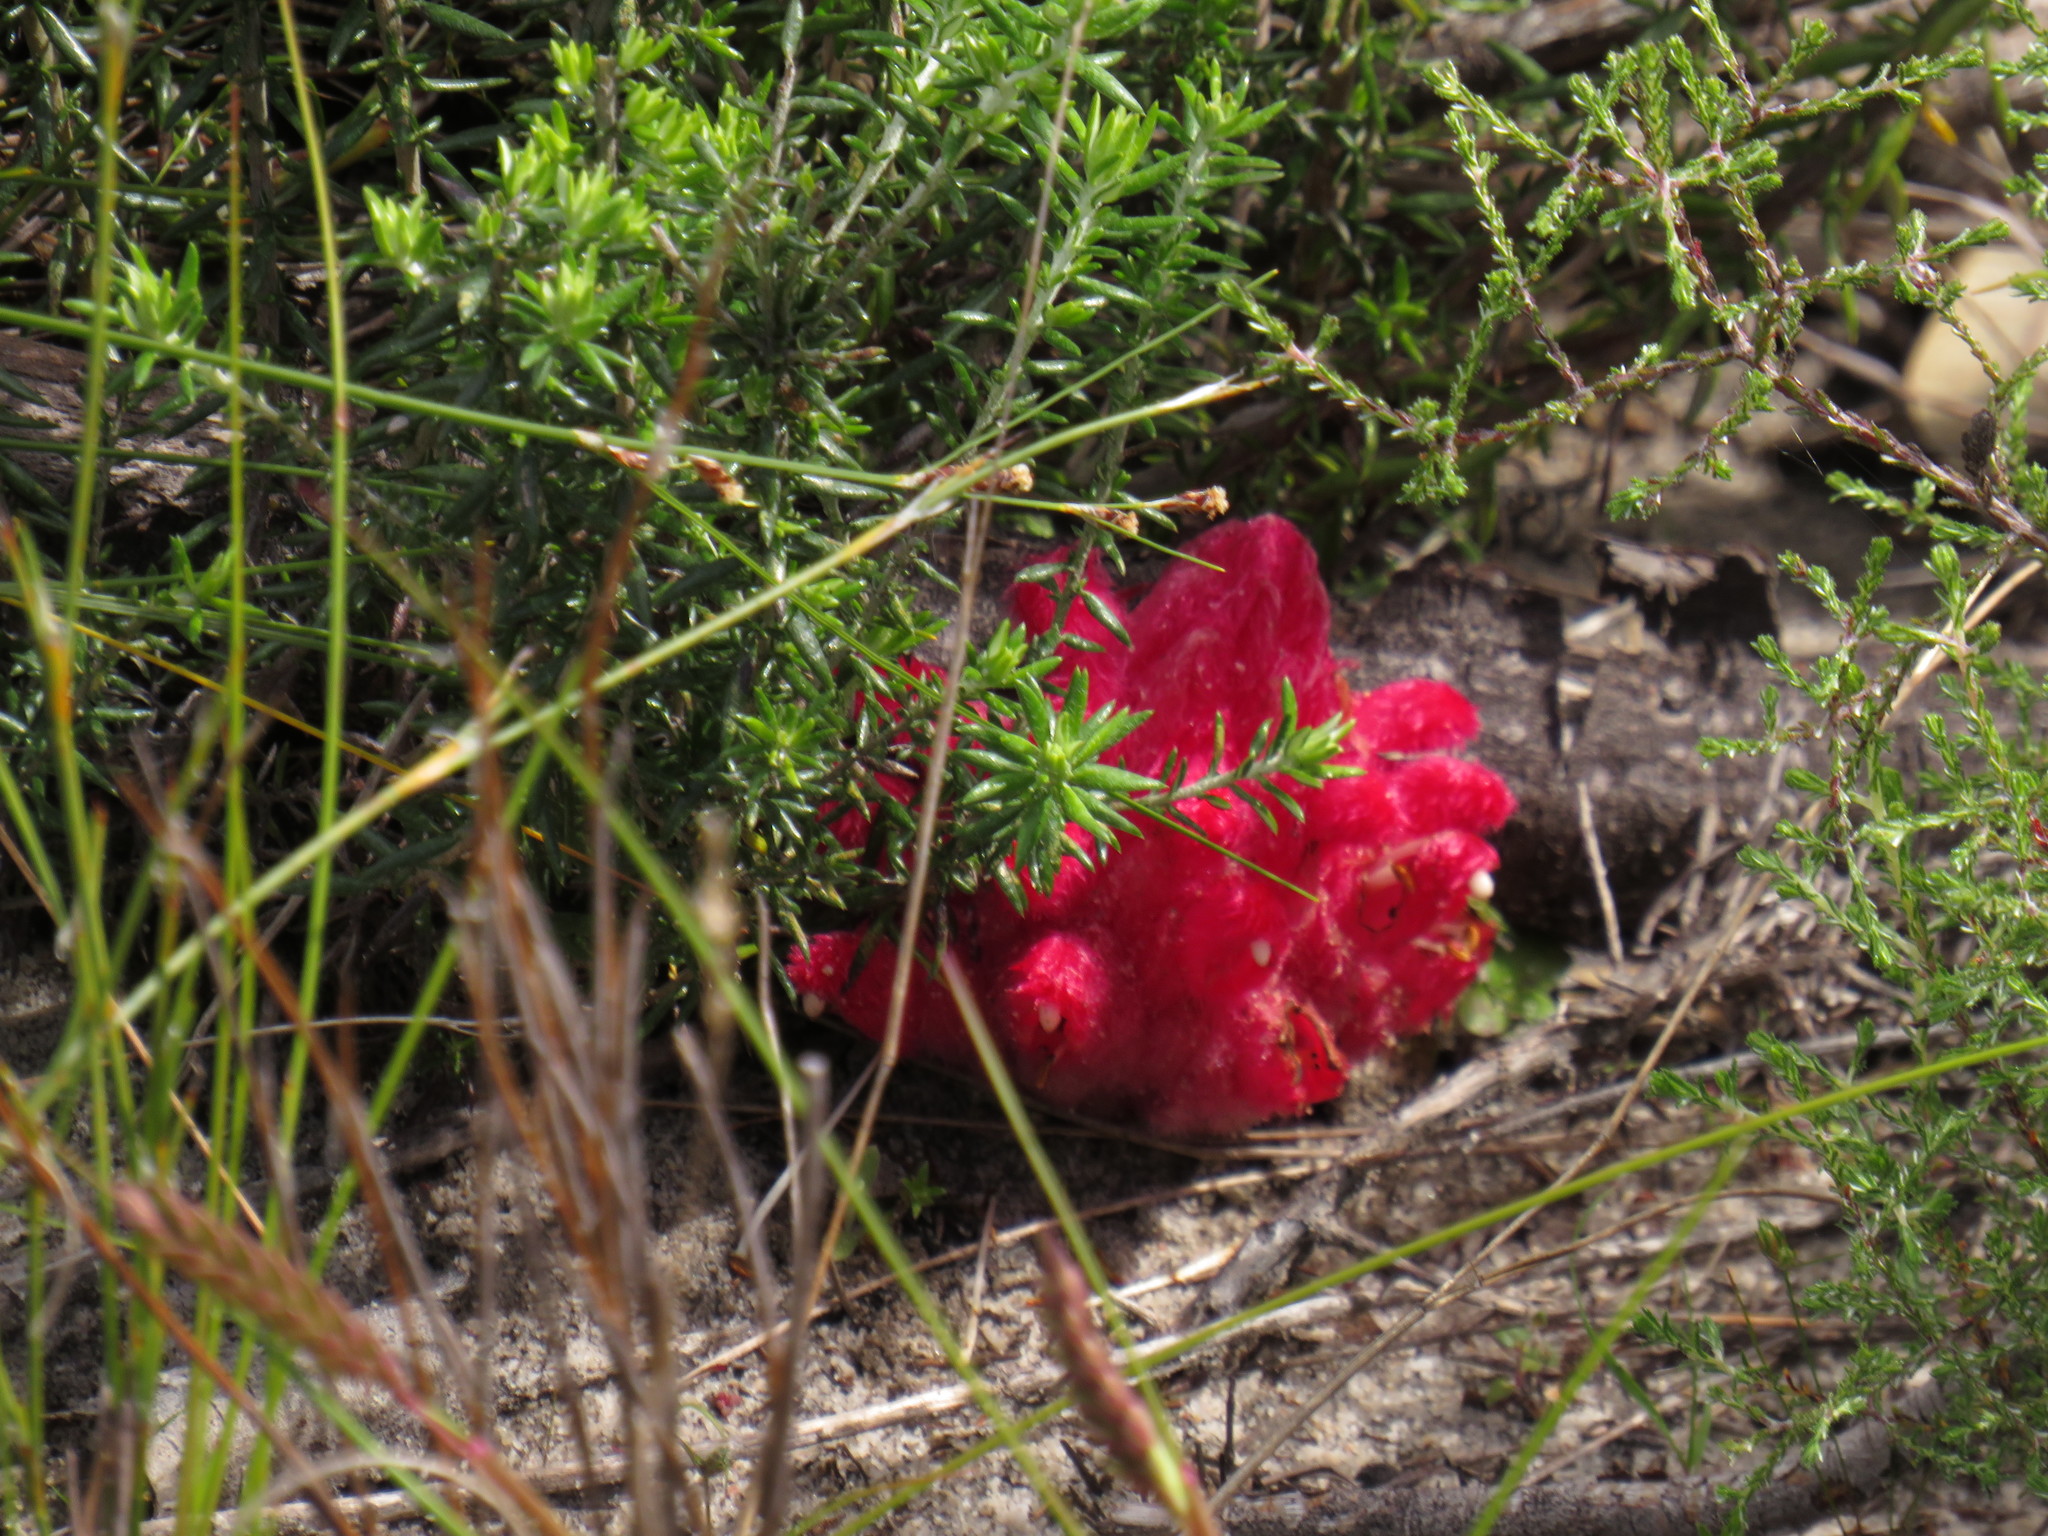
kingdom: Plantae
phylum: Tracheophyta
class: Magnoliopsida
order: Lamiales
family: Orobanchaceae
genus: Hyobanche
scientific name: Hyobanche sanguinea
